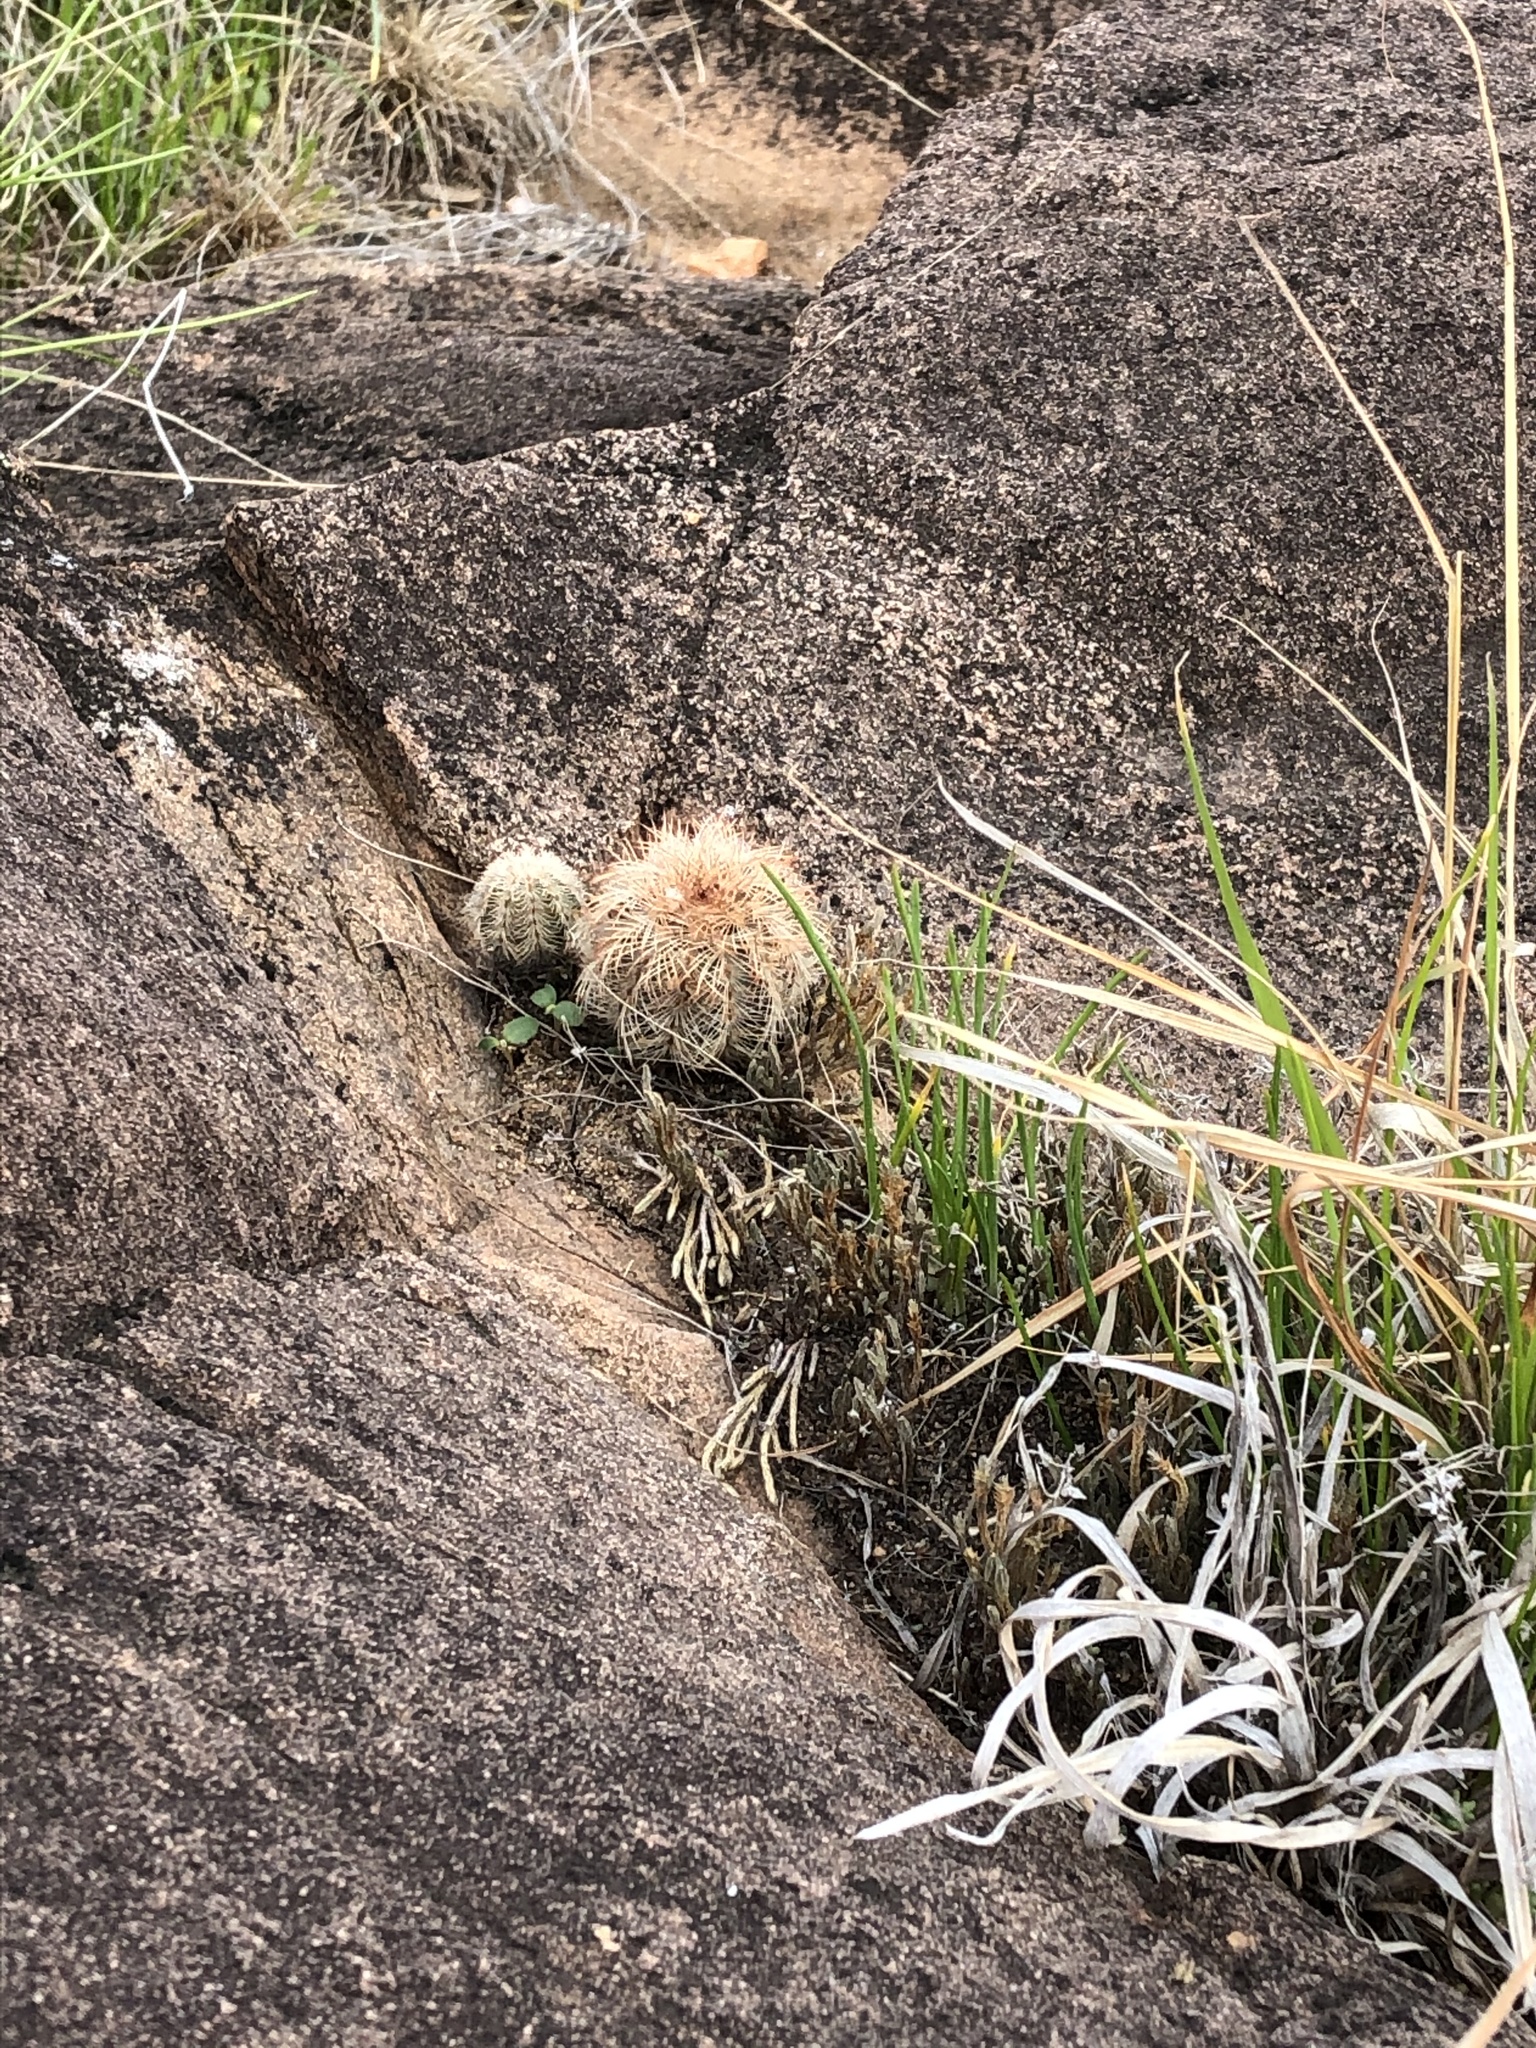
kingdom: Plantae
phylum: Tracheophyta
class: Magnoliopsida
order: Caryophyllales
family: Cactaceae
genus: Echinocereus
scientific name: Echinocereus reichenbachii
